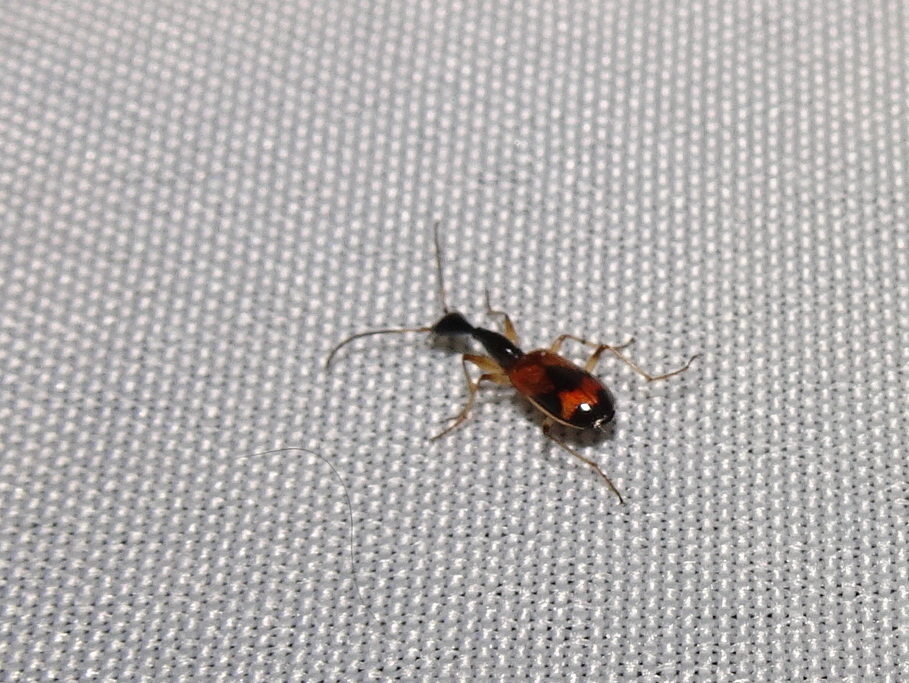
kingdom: Animalia
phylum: Arthropoda
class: Insecta
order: Coleoptera
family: Carabidae
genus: Colliuris
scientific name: Colliuris pensylvanica
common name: Long-necked ground beetle
